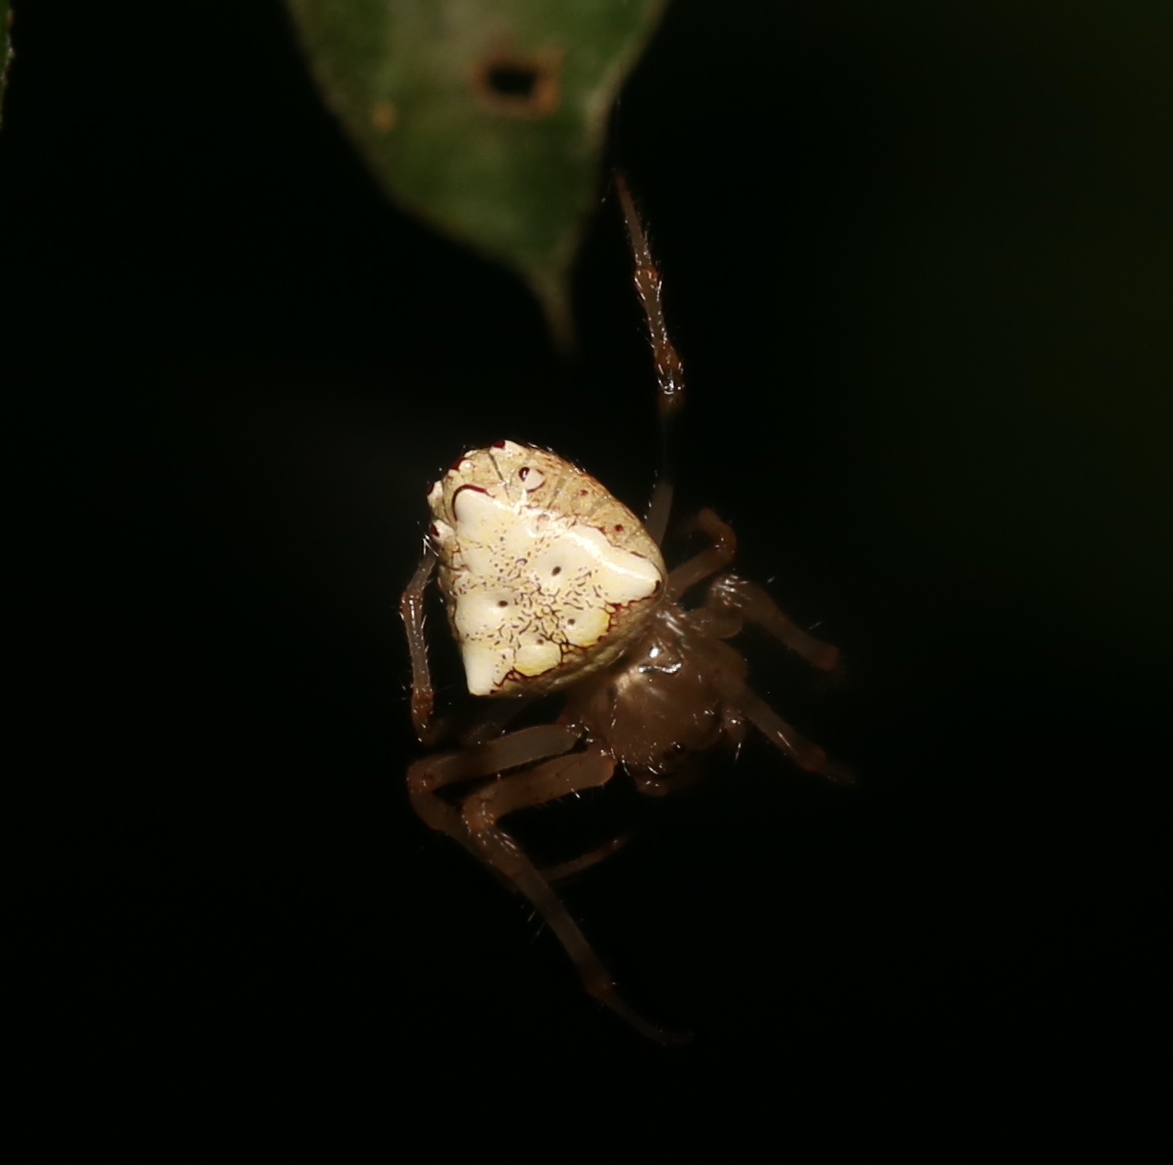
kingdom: Animalia
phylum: Arthropoda
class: Arachnida
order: Araneae
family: Araneidae
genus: Verrucosa
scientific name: Verrucosa arenata
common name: Orb weavers
